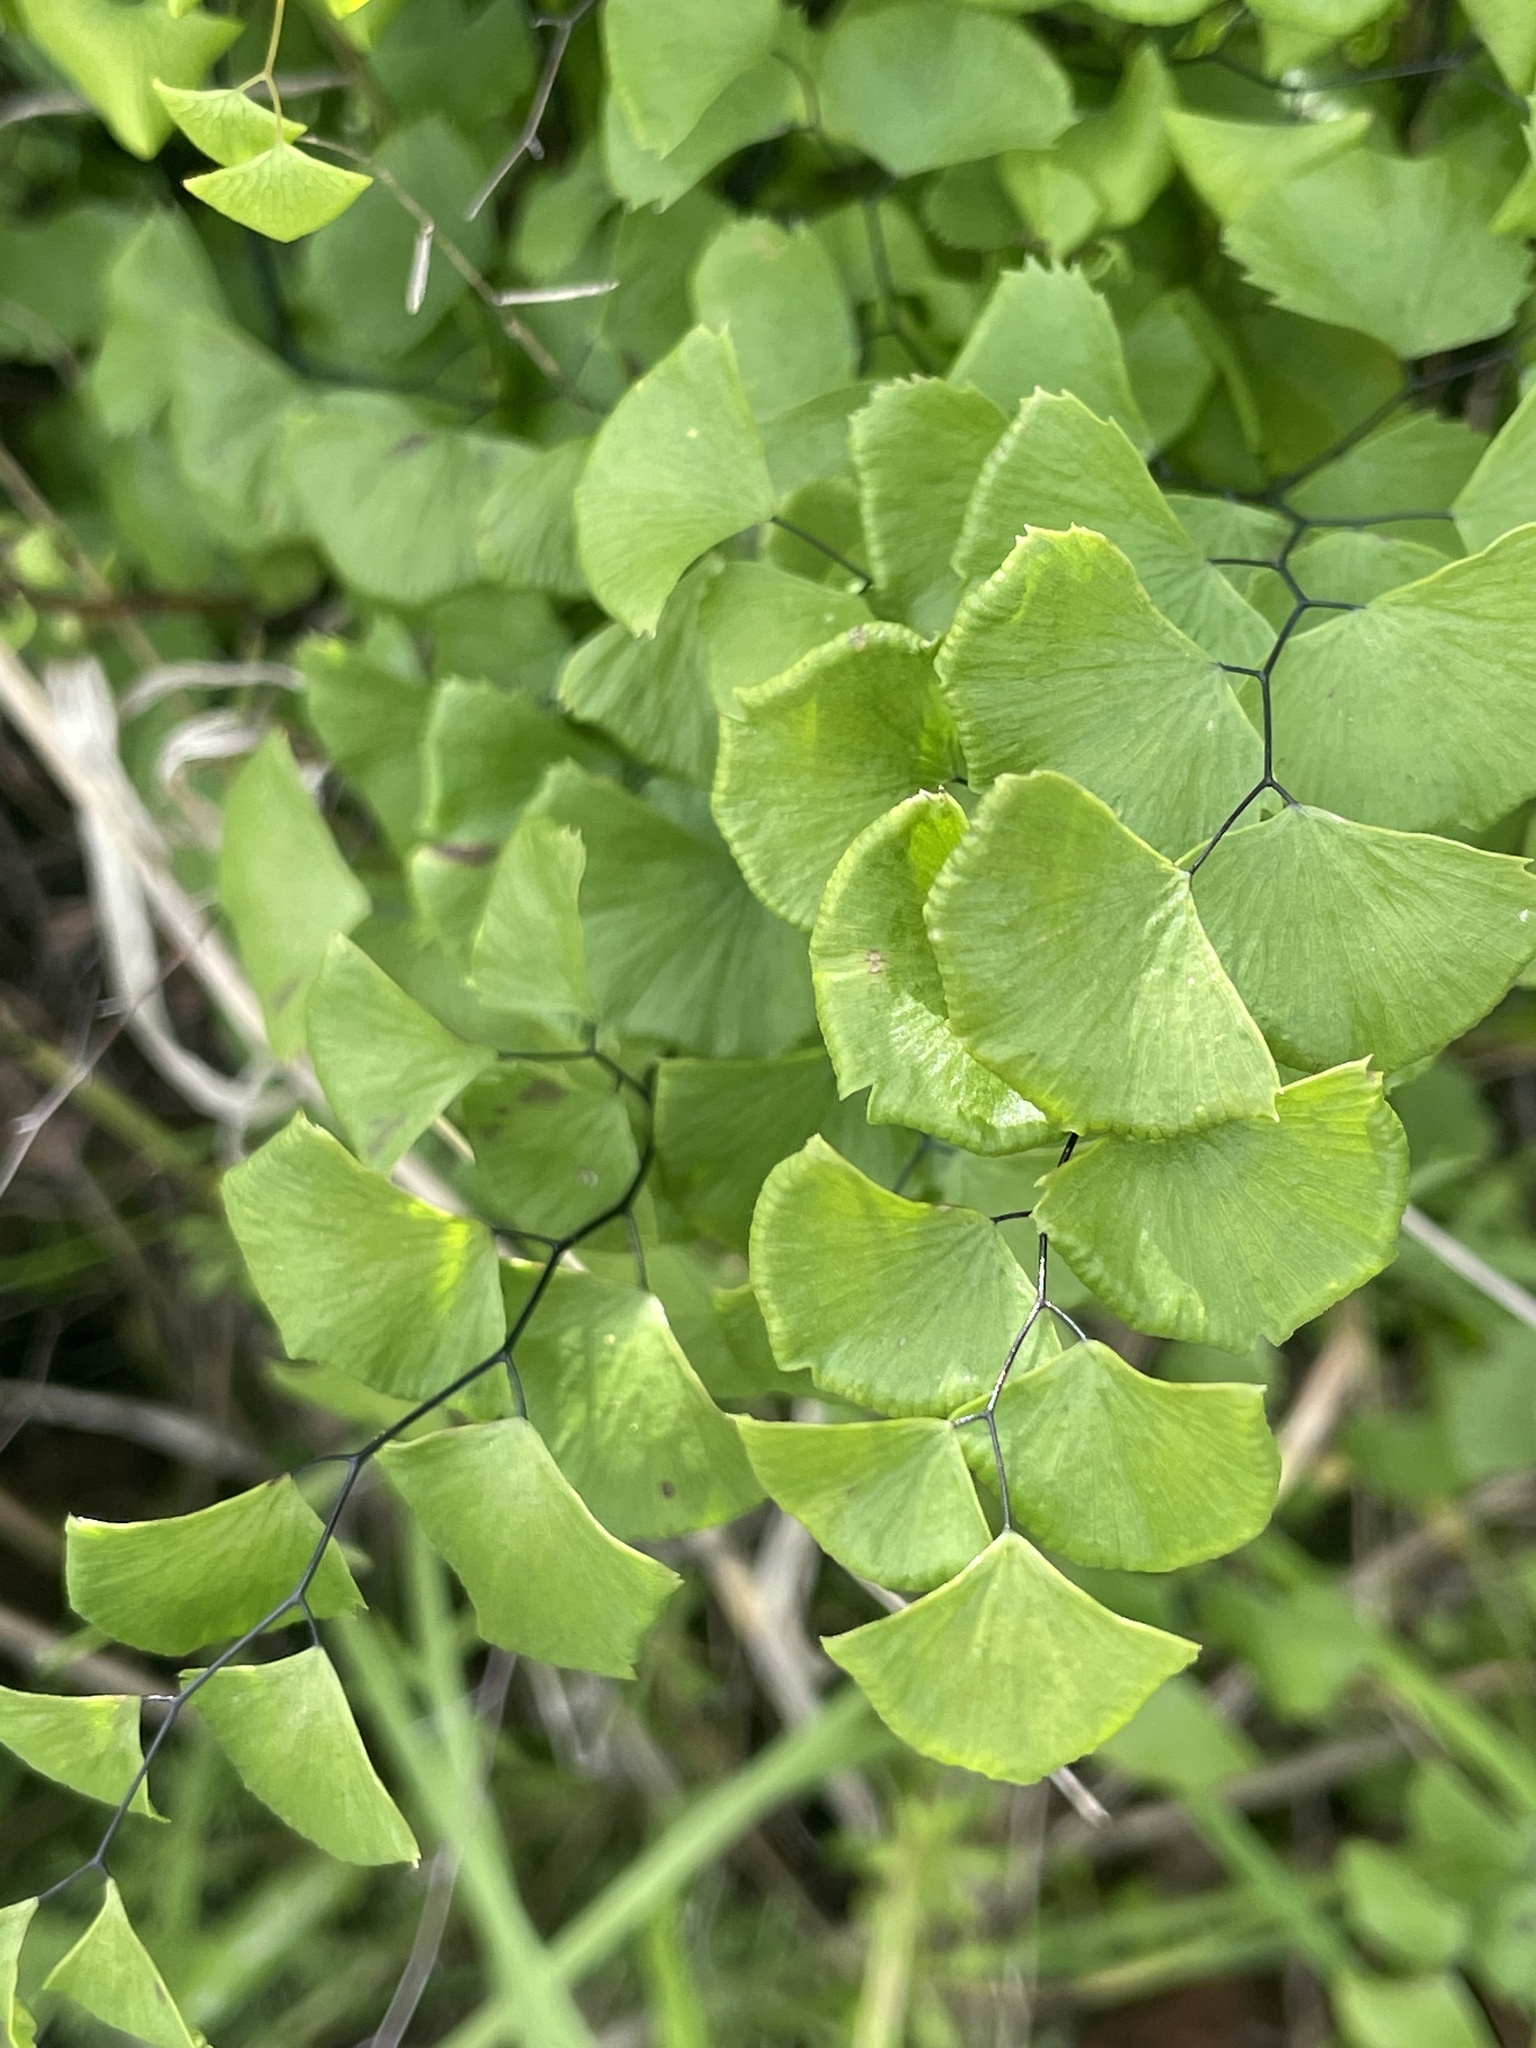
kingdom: Plantae
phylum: Tracheophyta
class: Polypodiopsida
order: Polypodiales
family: Pteridaceae
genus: Adiantum
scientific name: Adiantum jordanii
